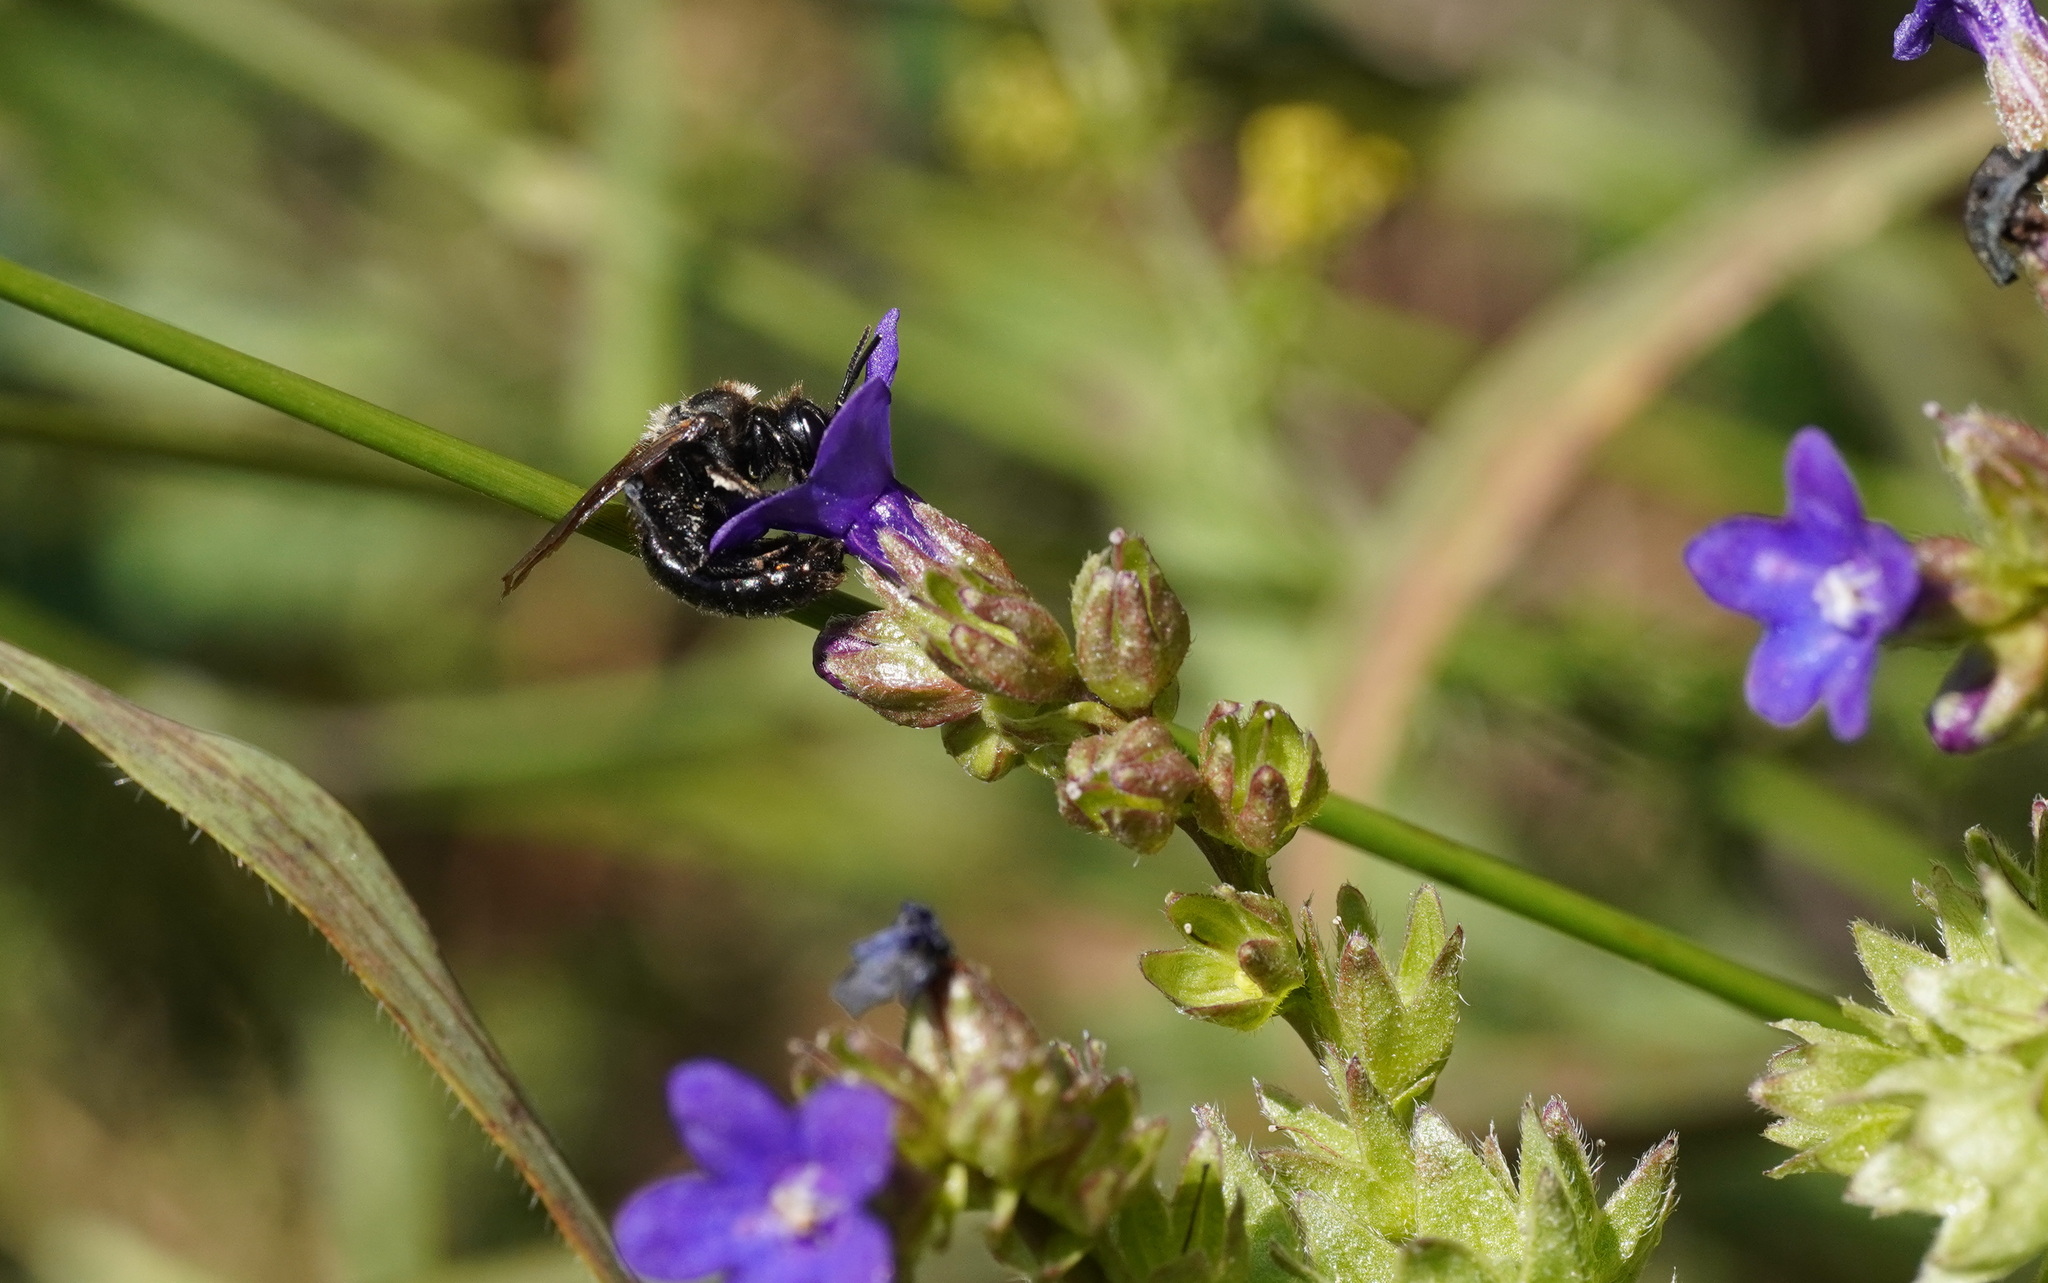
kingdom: Animalia
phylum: Arthropoda
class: Insecta
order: Hymenoptera
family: Andrenidae
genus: Andrena
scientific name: Andrena nasuta
